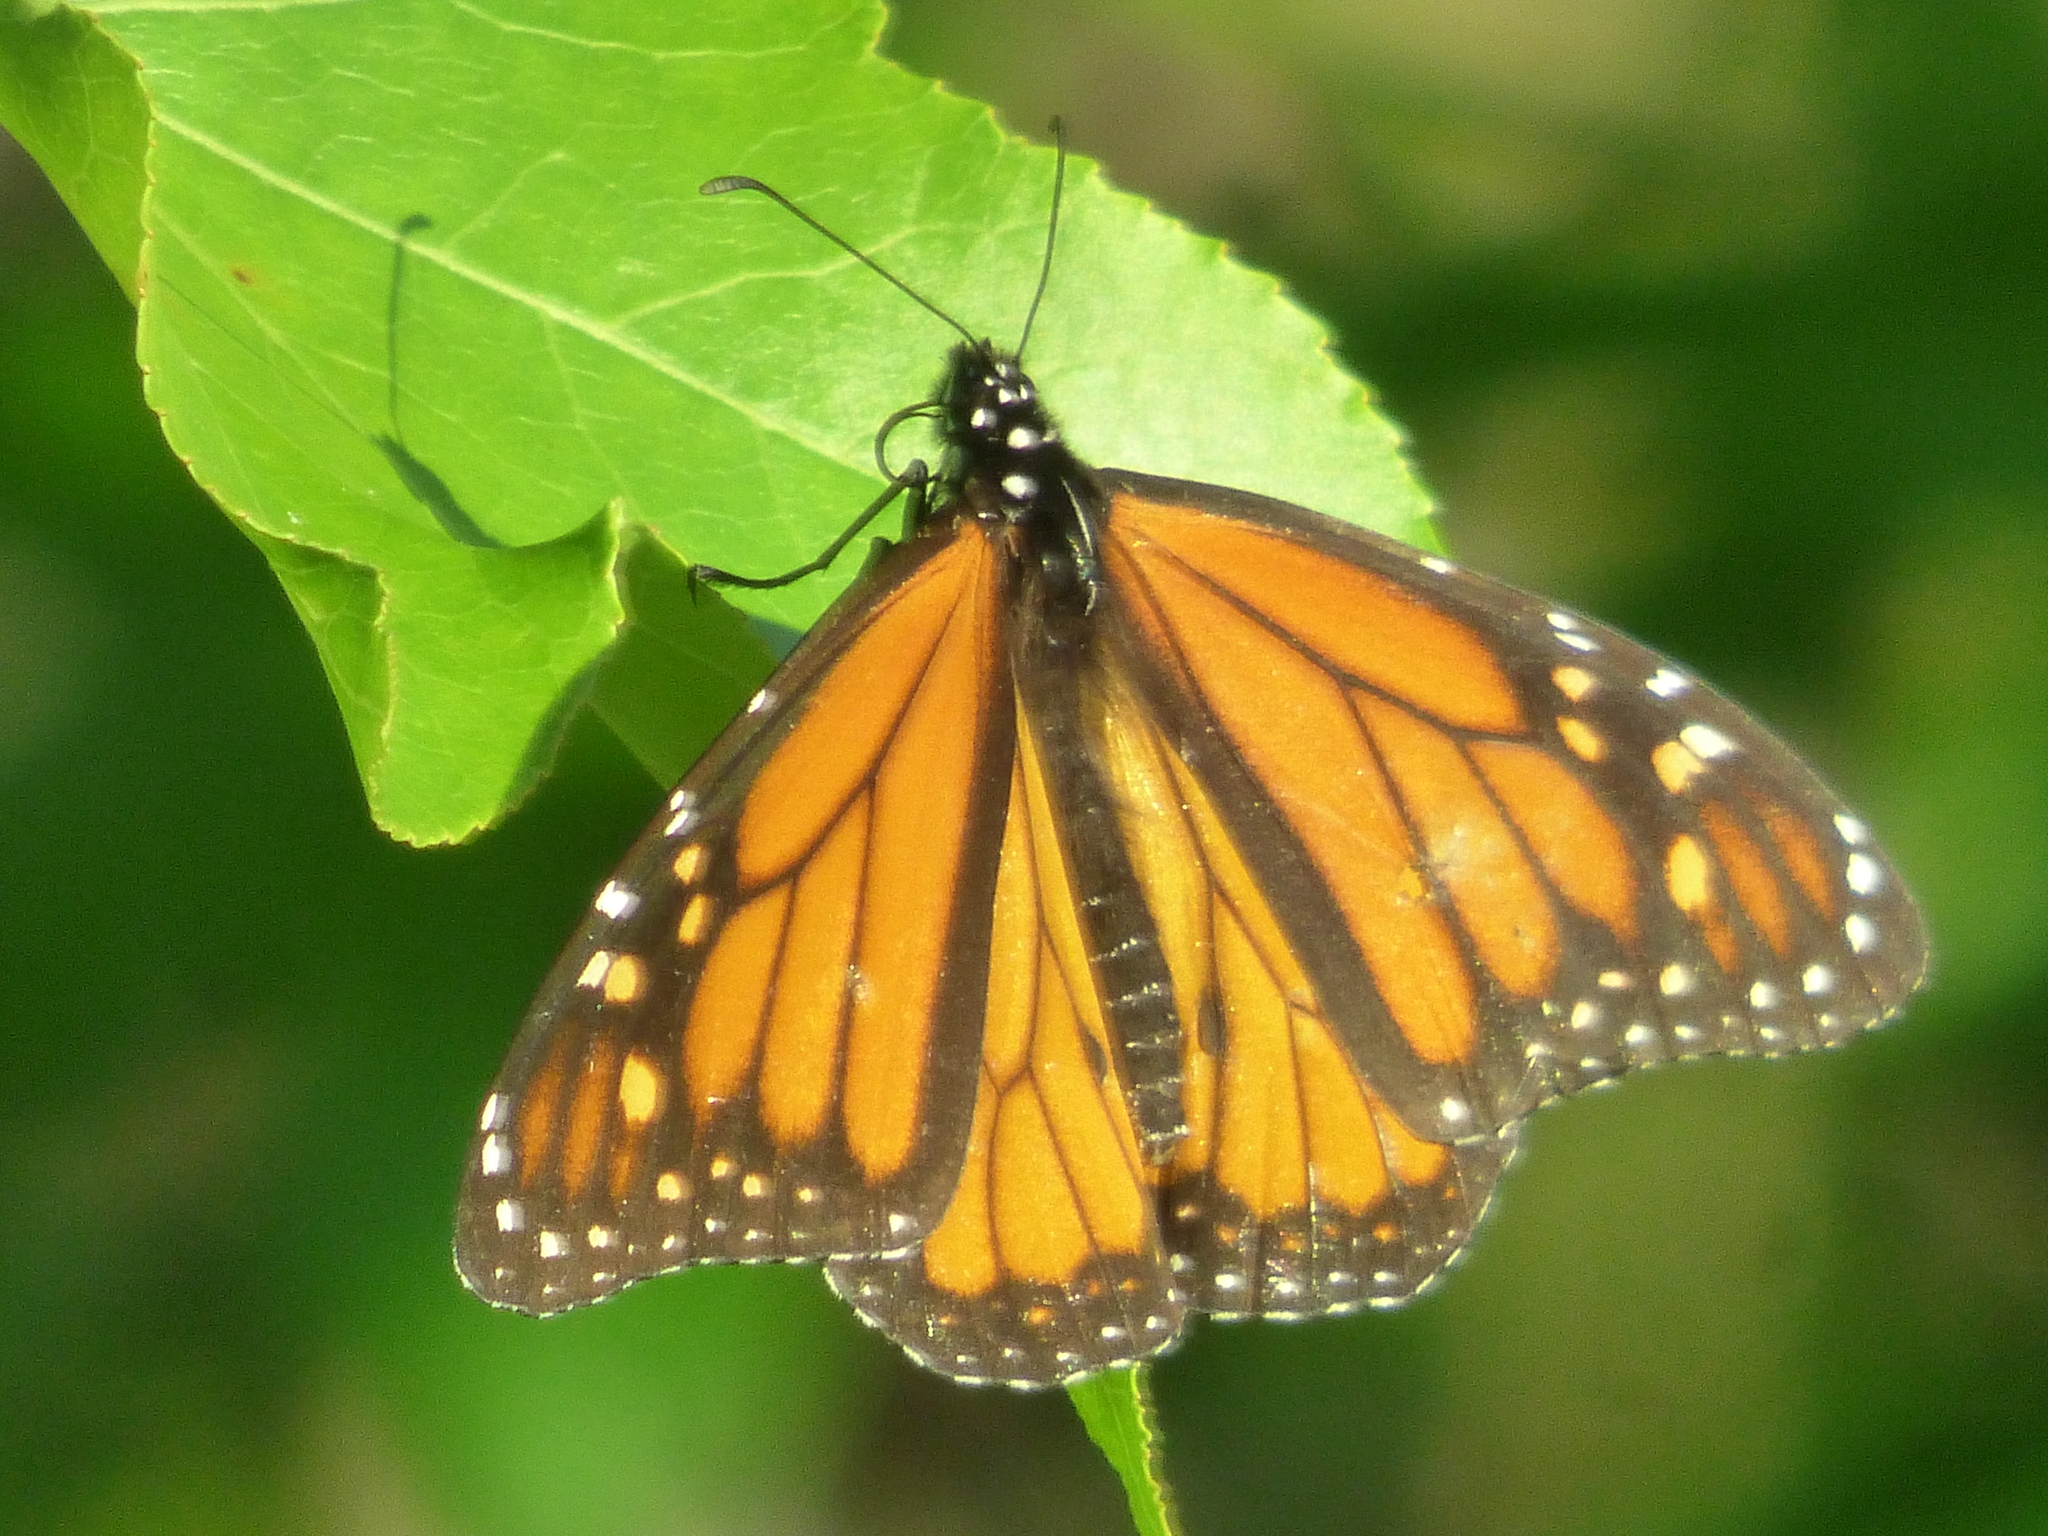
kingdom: Animalia
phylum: Arthropoda
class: Insecta
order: Lepidoptera
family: Nymphalidae
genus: Danaus
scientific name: Danaus plexippus
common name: Monarch
